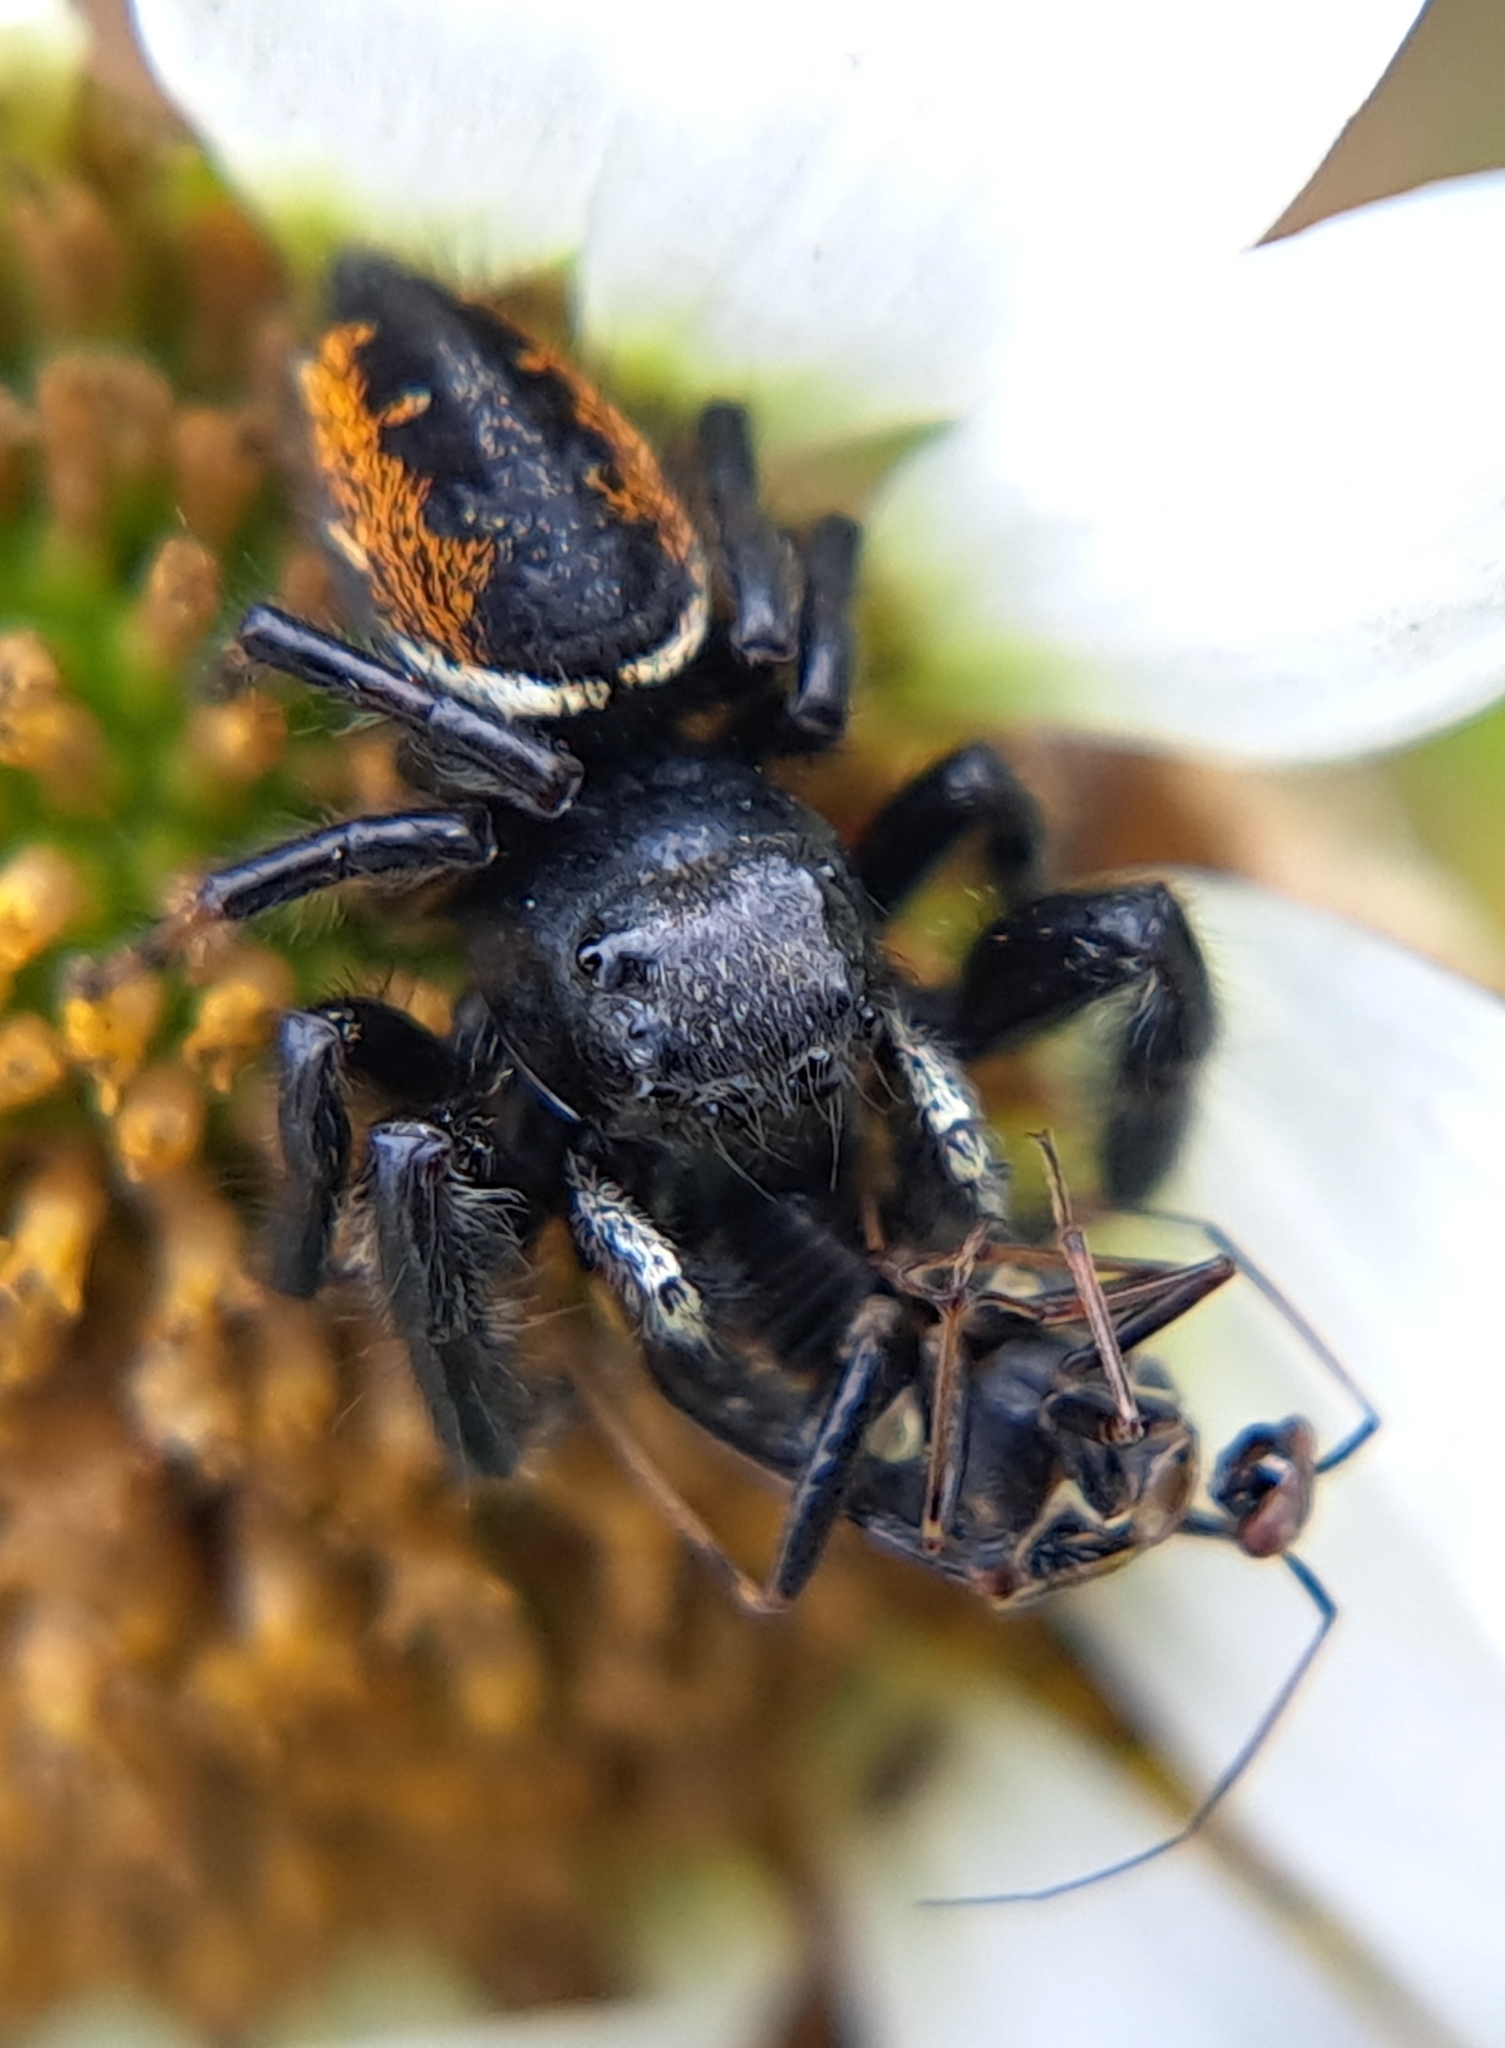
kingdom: Animalia
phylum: Arthropoda
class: Arachnida
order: Araneae
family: Salticidae
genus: Phidippus
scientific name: Phidippus clarus
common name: Brilliant jumping spider
